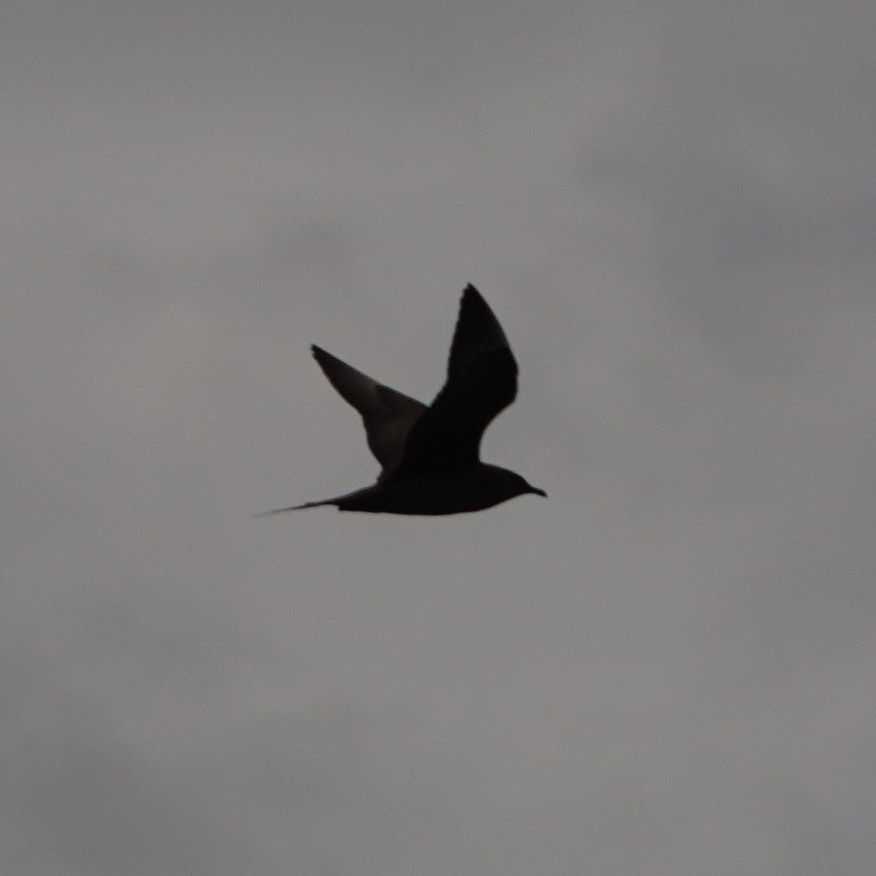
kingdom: Animalia
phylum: Chordata
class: Aves
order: Charadriiformes
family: Stercorariidae
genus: Stercorarius
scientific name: Stercorarius parasiticus
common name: Parasitic jaeger
